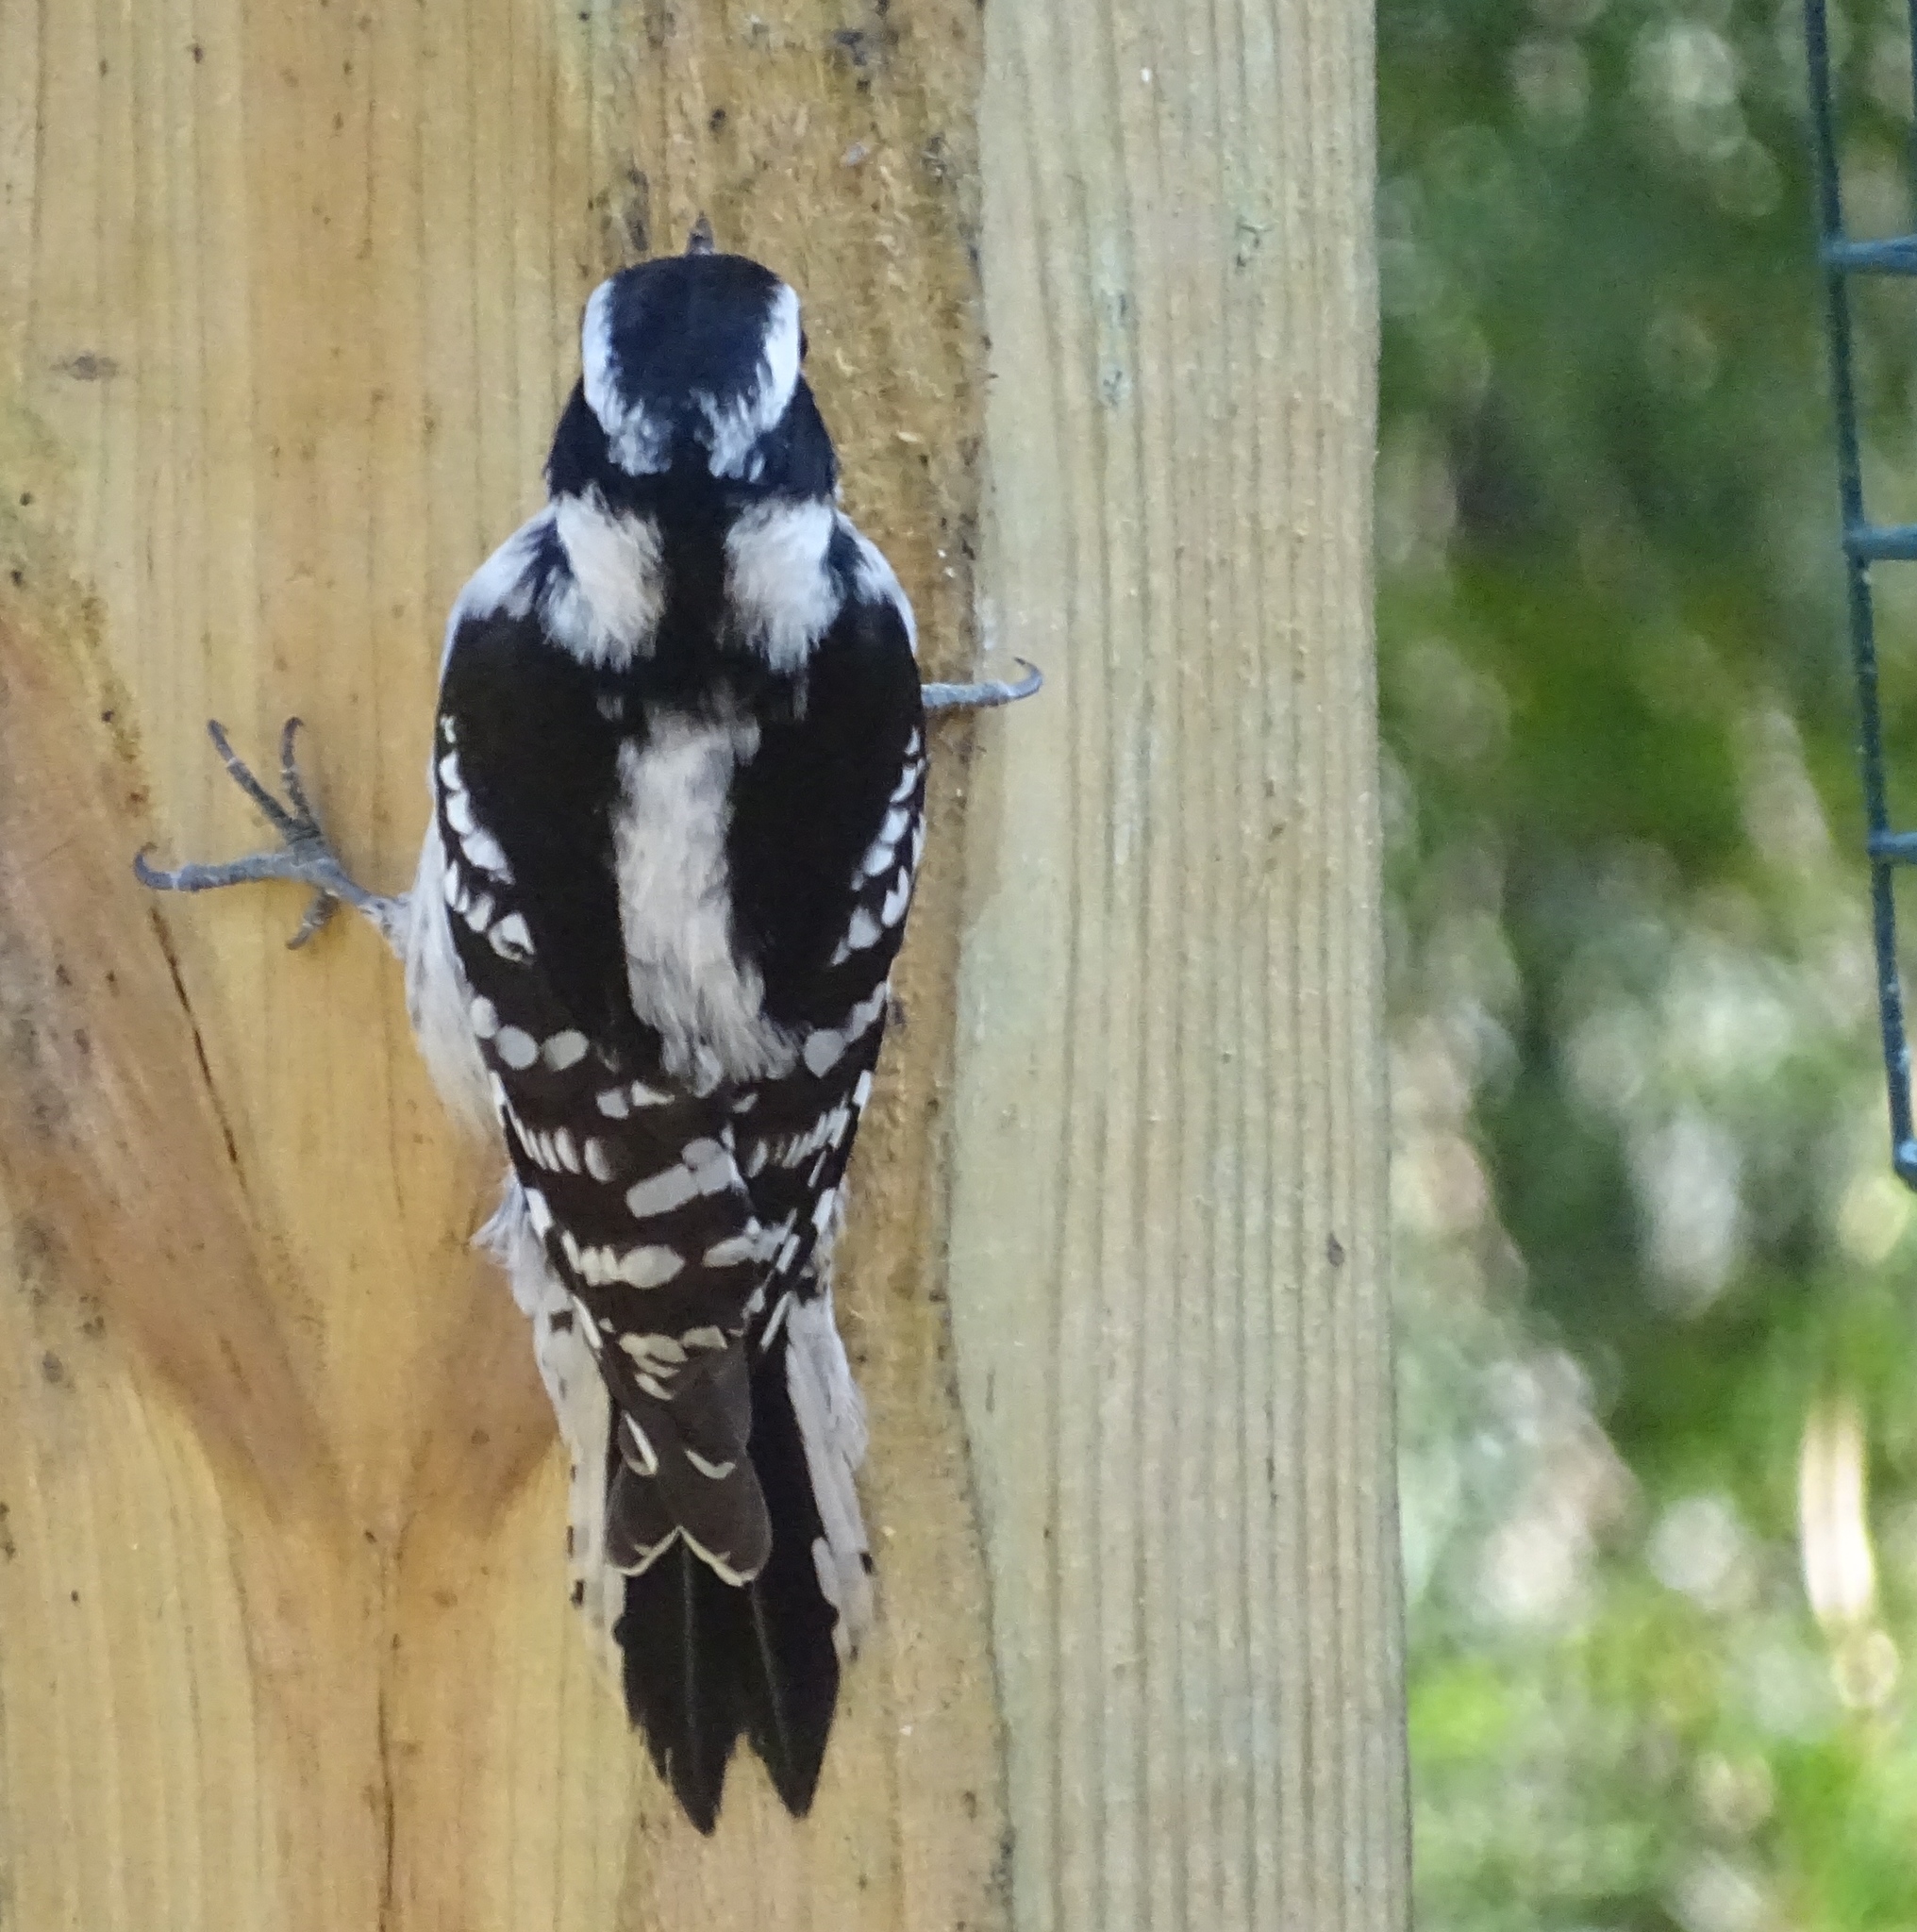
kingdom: Animalia
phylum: Chordata
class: Aves
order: Piciformes
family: Picidae
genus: Dryobates
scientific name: Dryobates pubescens
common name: Downy woodpecker
